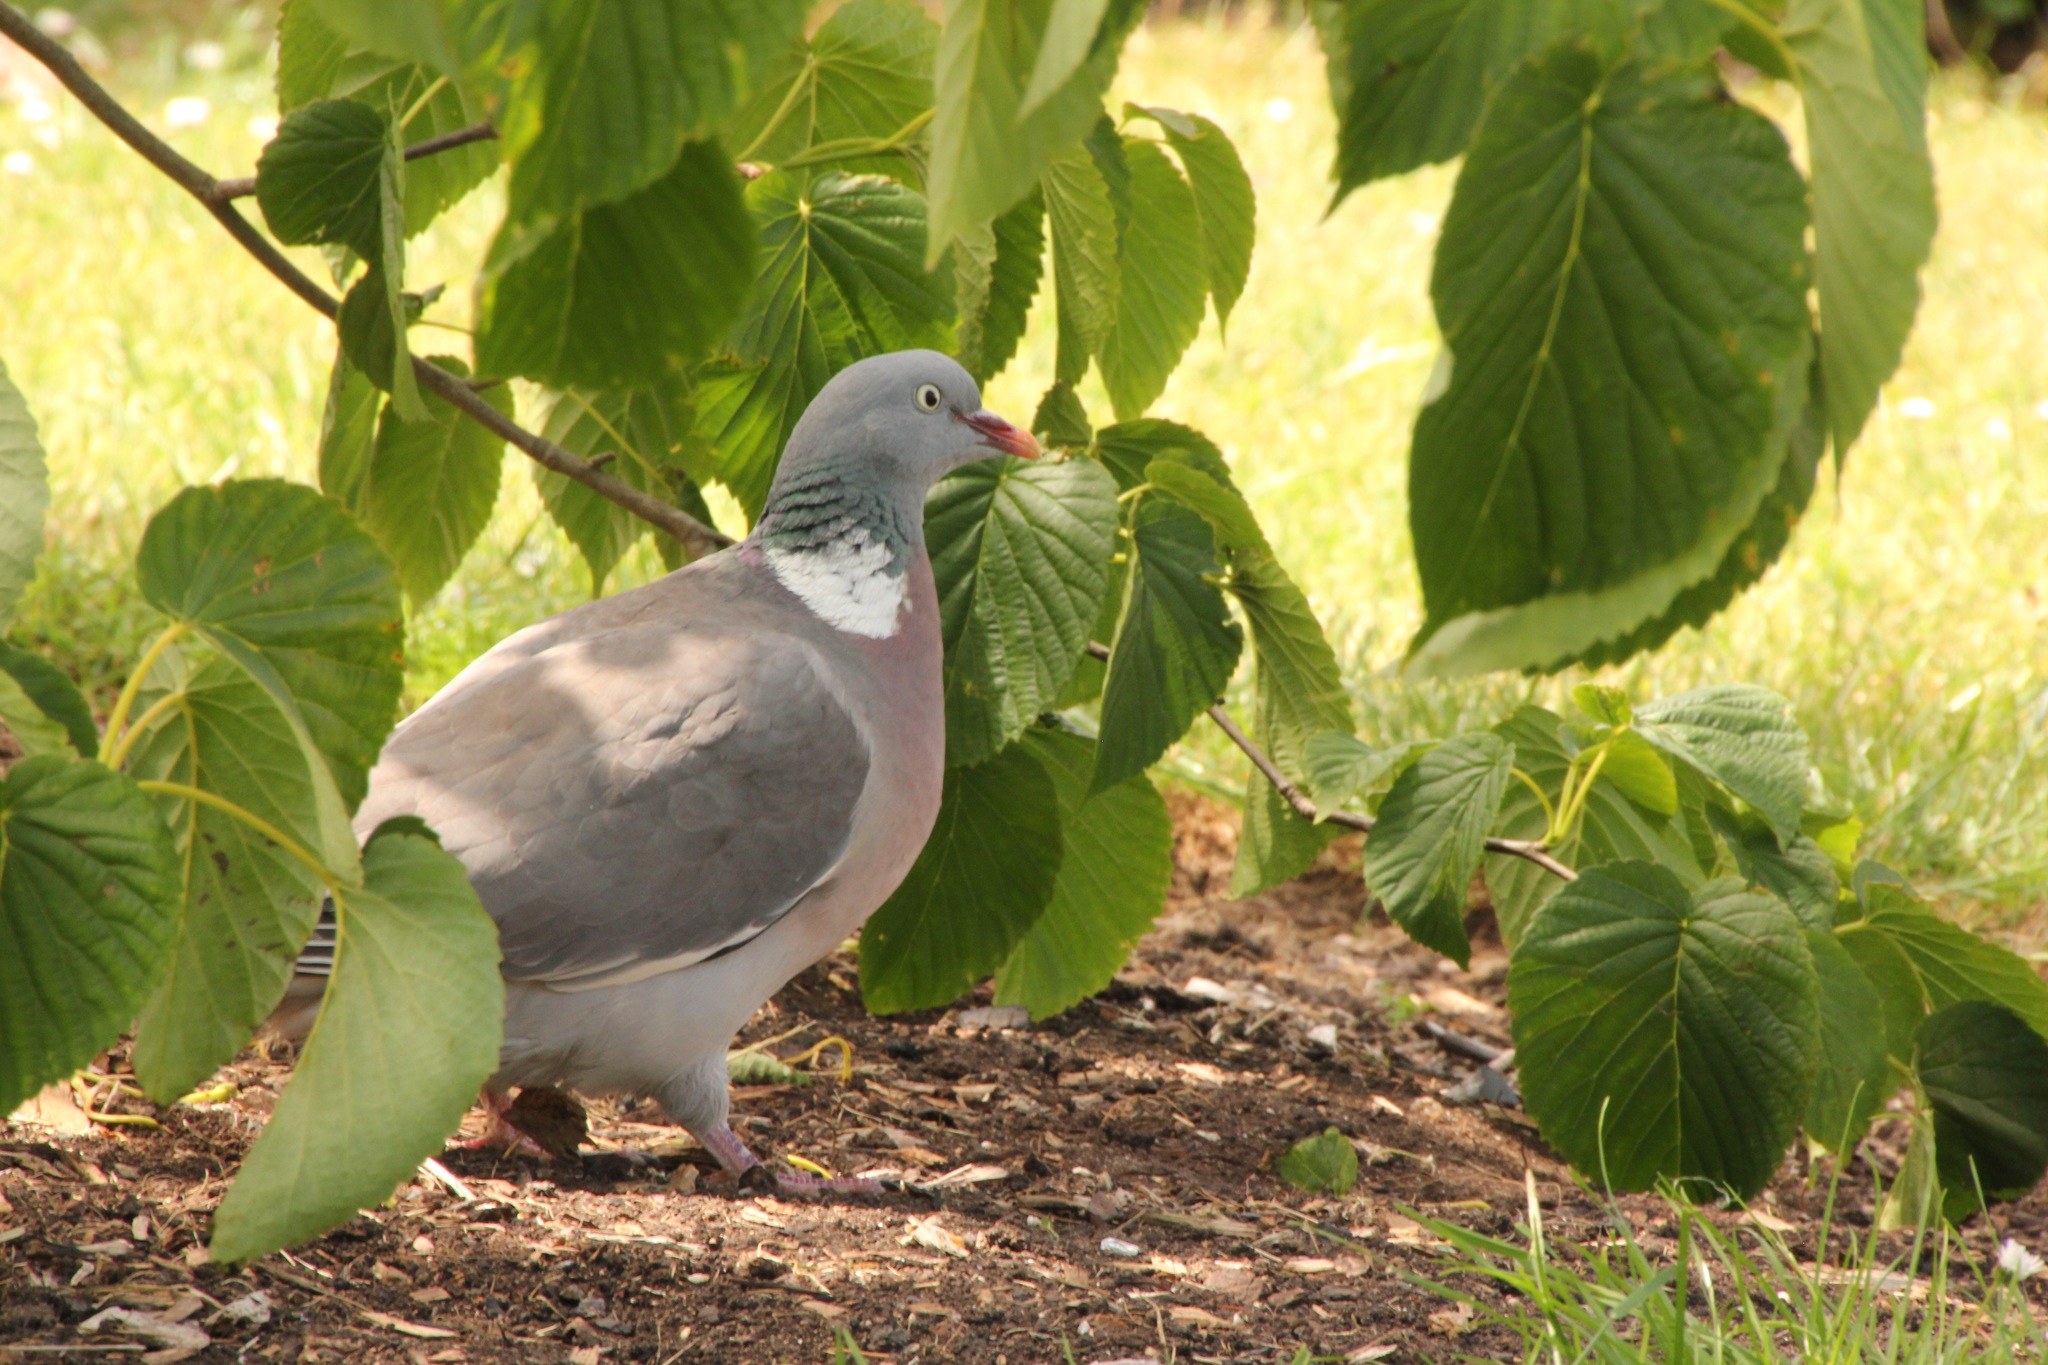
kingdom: Animalia
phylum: Chordata
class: Aves
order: Columbiformes
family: Columbidae
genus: Columba
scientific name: Columba palumbus
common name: Common wood pigeon
